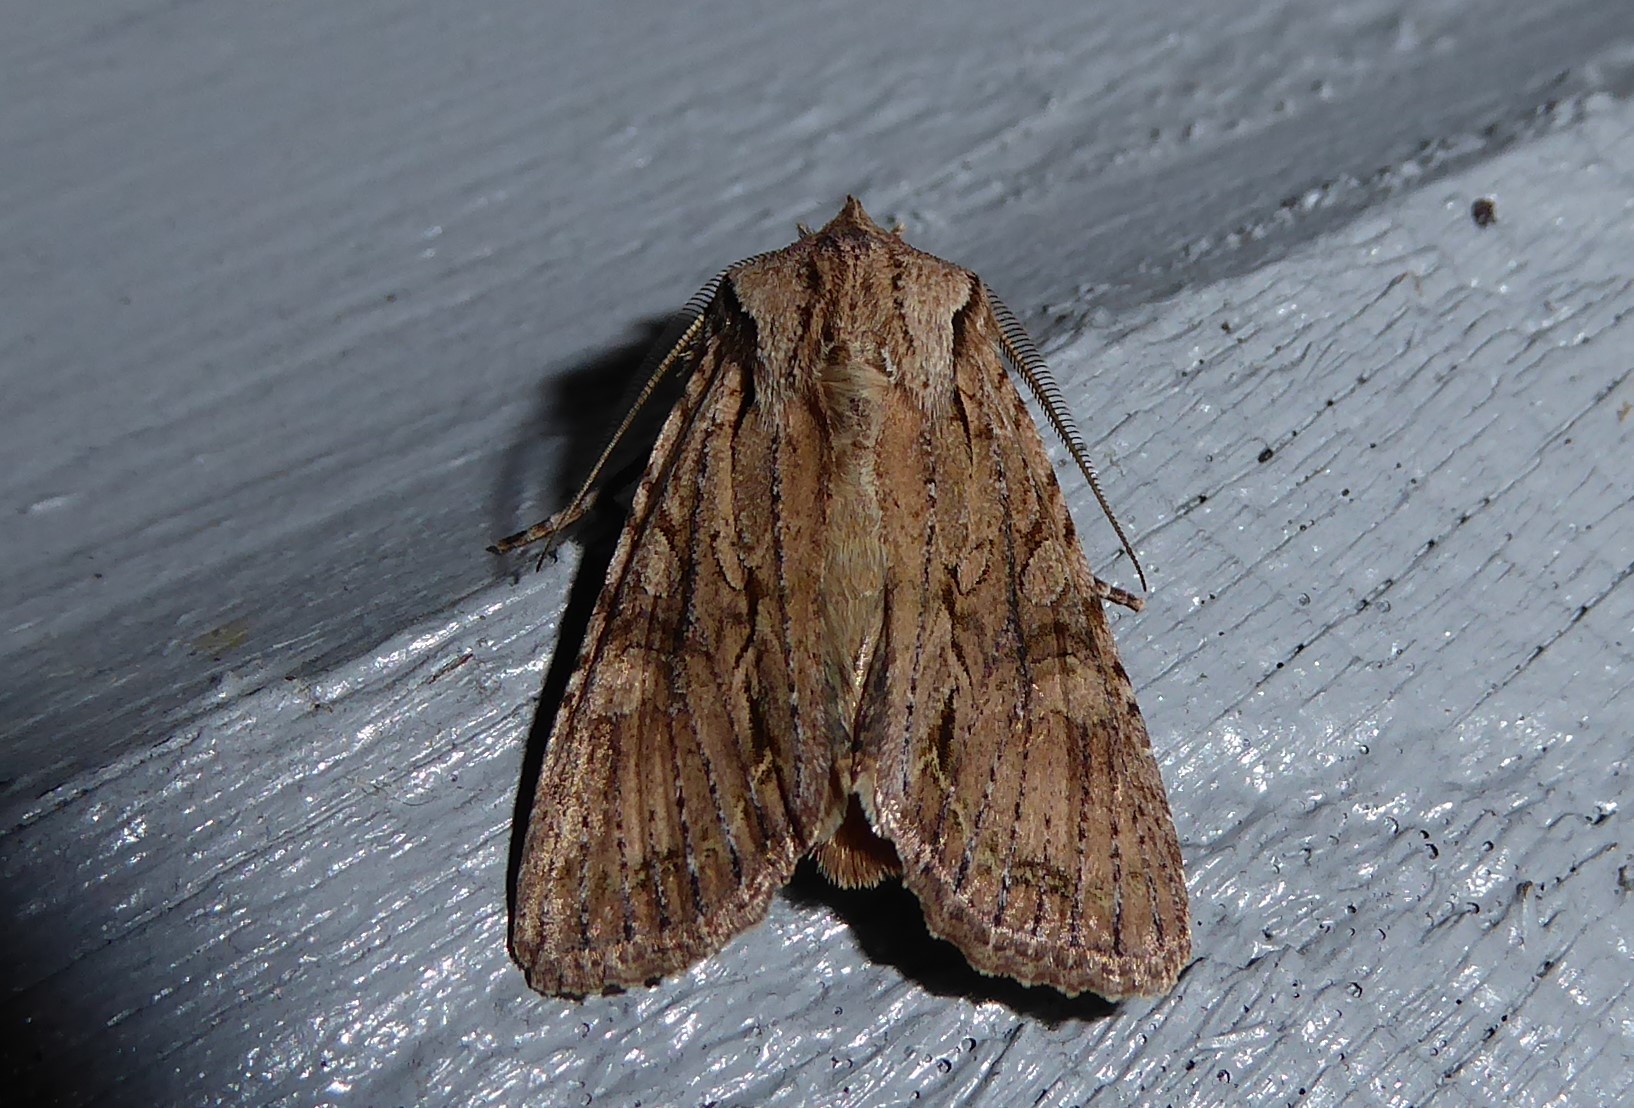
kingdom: Animalia
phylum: Arthropoda
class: Insecta
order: Lepidoptera
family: Noctuidae
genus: Ichneutica
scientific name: Ichneutica
